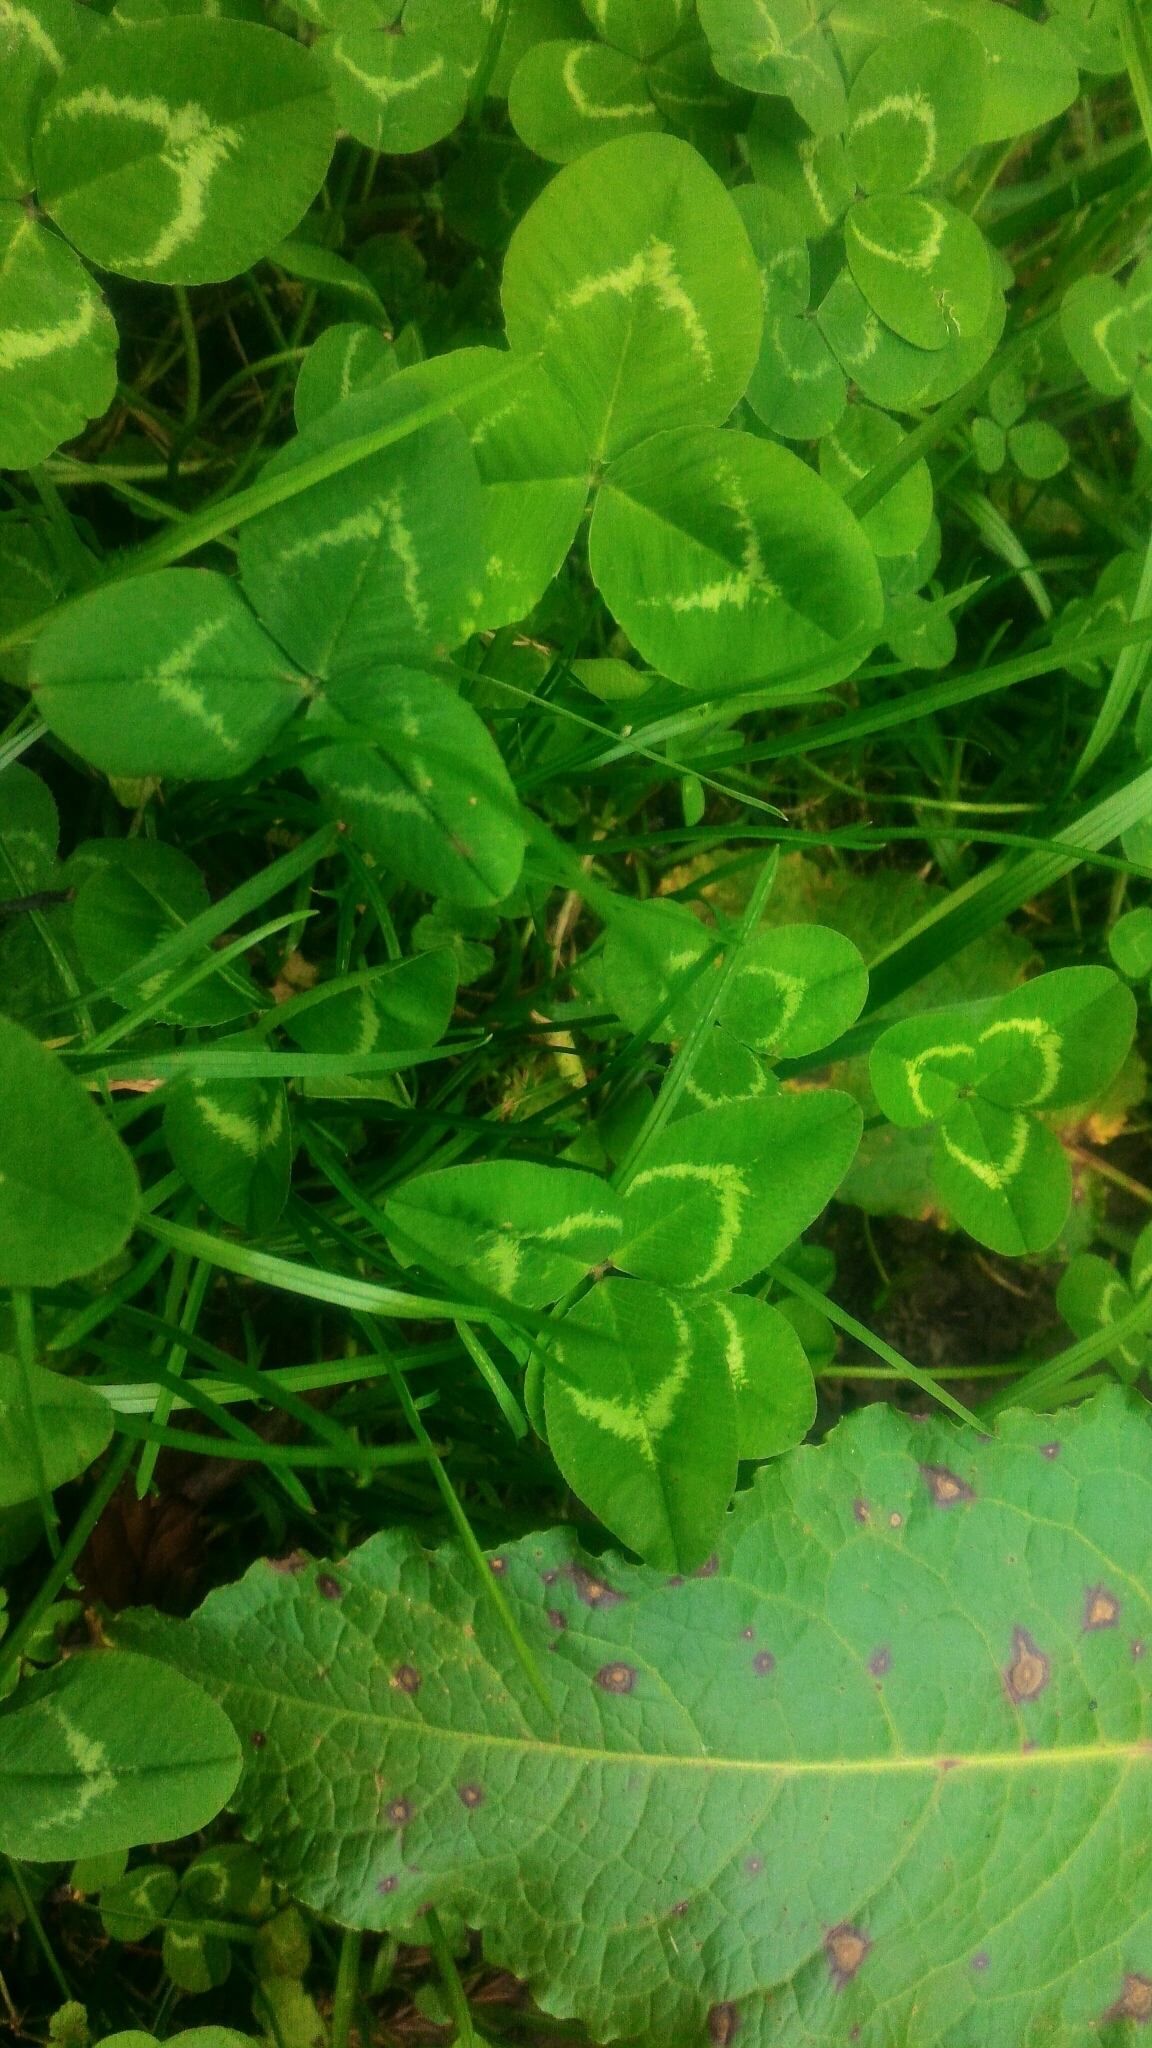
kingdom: Plantae
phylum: Tracheophyta
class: Magnoliopsida
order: Fabales
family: Fabaceae
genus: Trifolium
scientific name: Trifolium repens
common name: White clover
